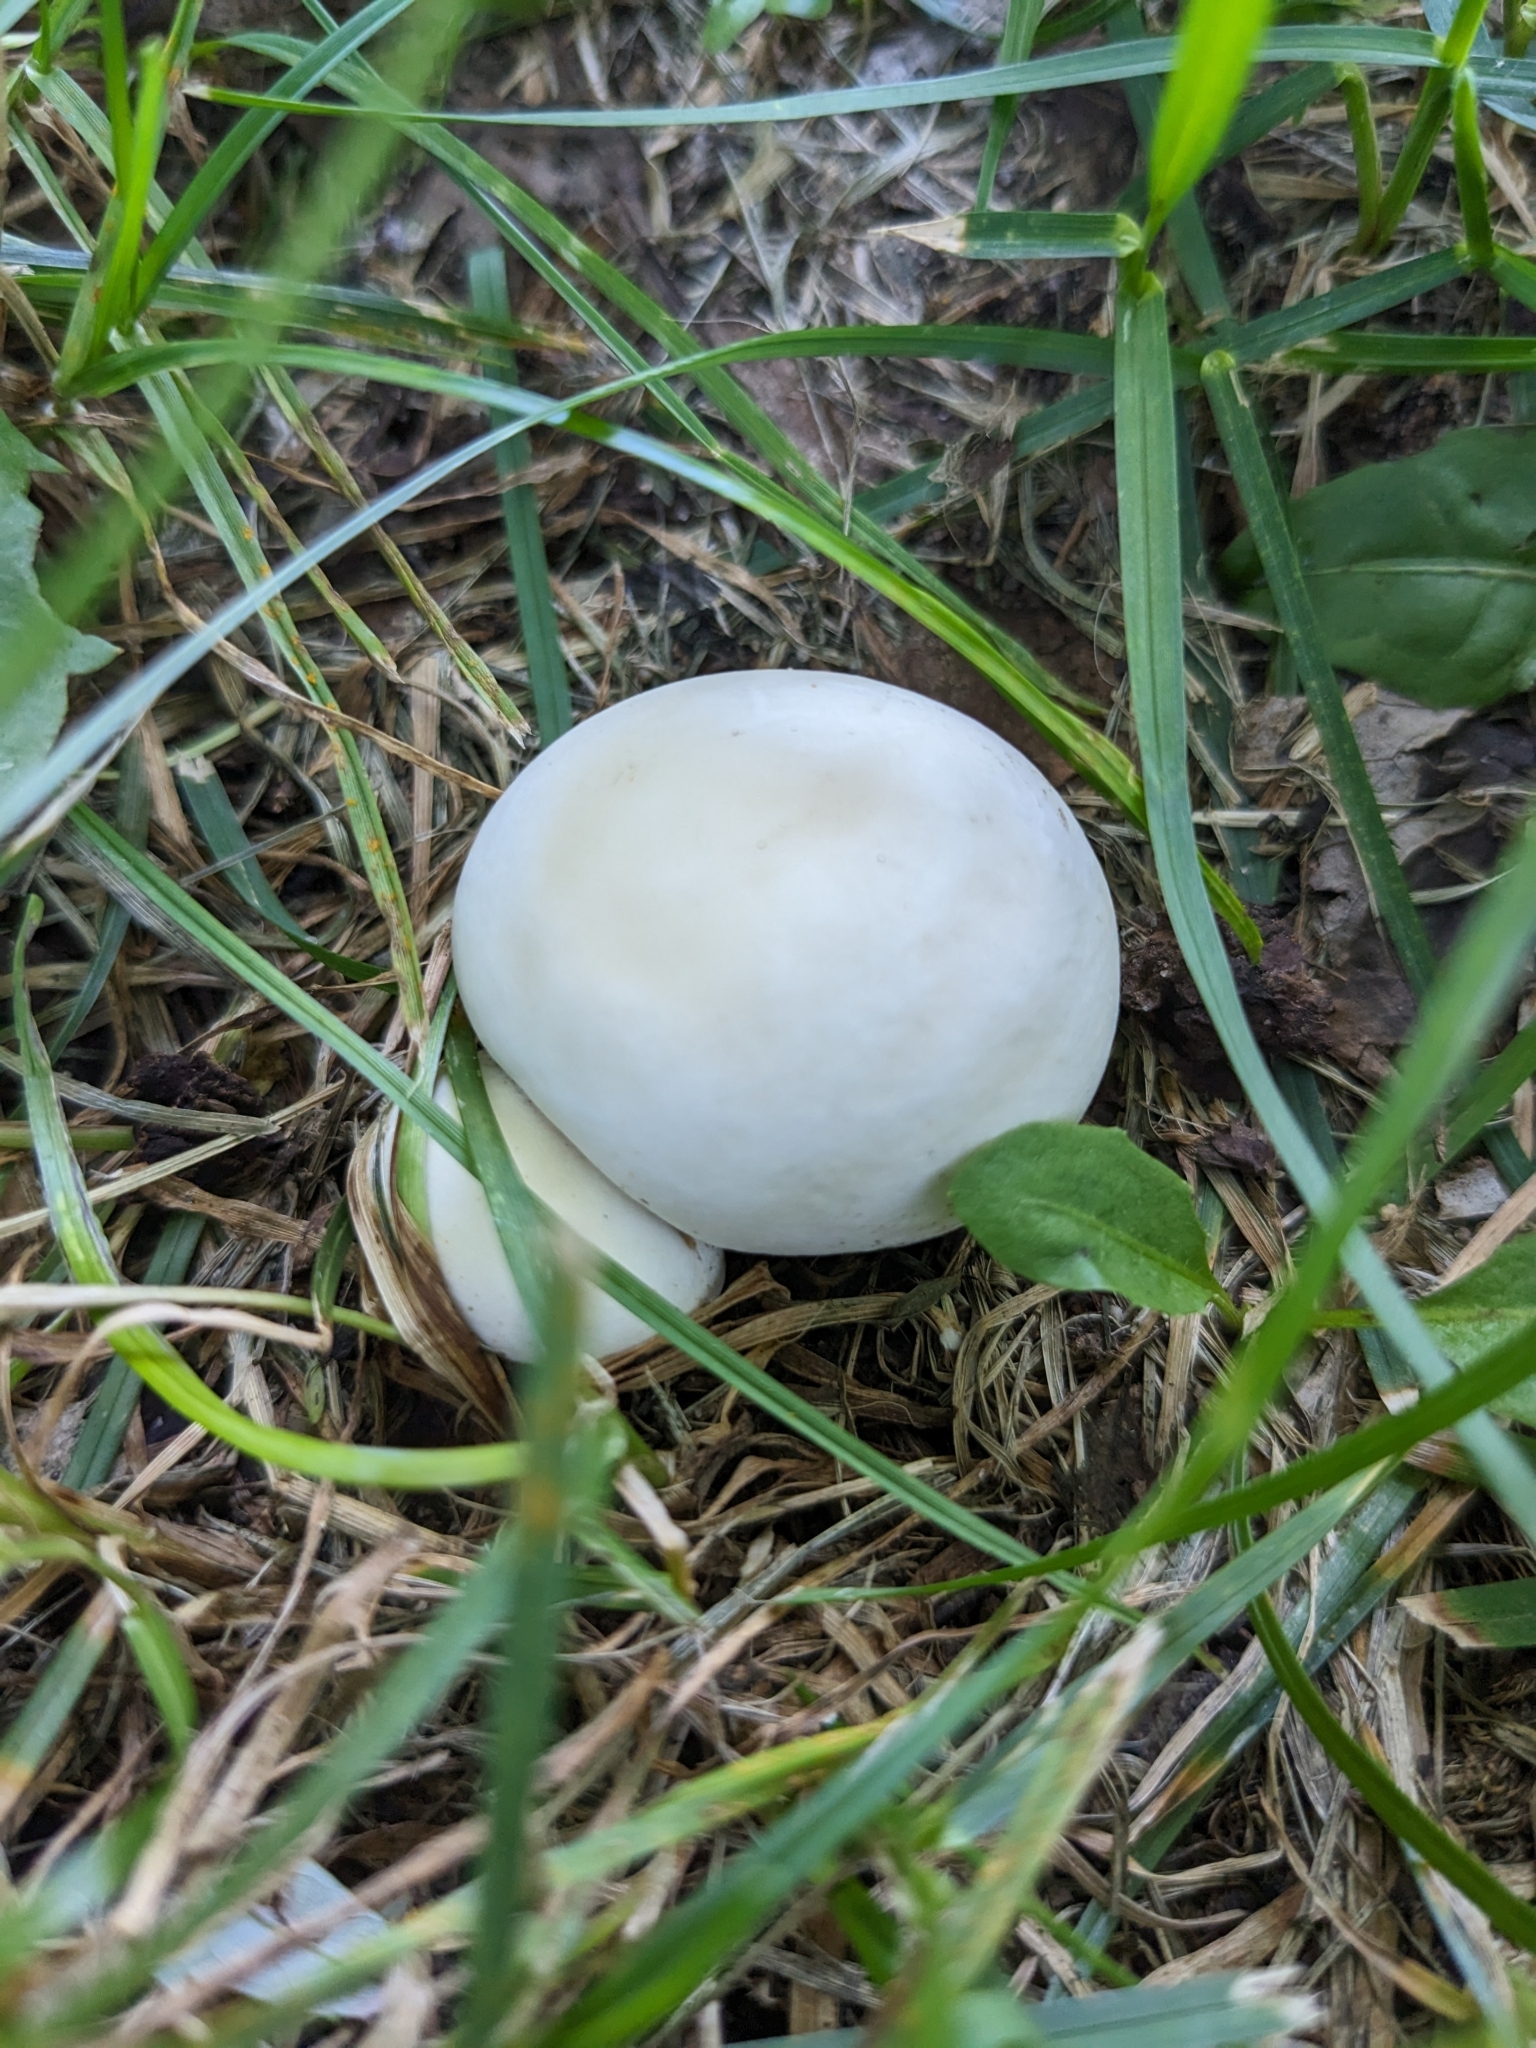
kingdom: Fungi
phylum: Basidiomycota
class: Agaricomycetes
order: Agaricales
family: Agaricaceae
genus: Leucoagaricus
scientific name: Leucoagaricus leucothites
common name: White dapperling
